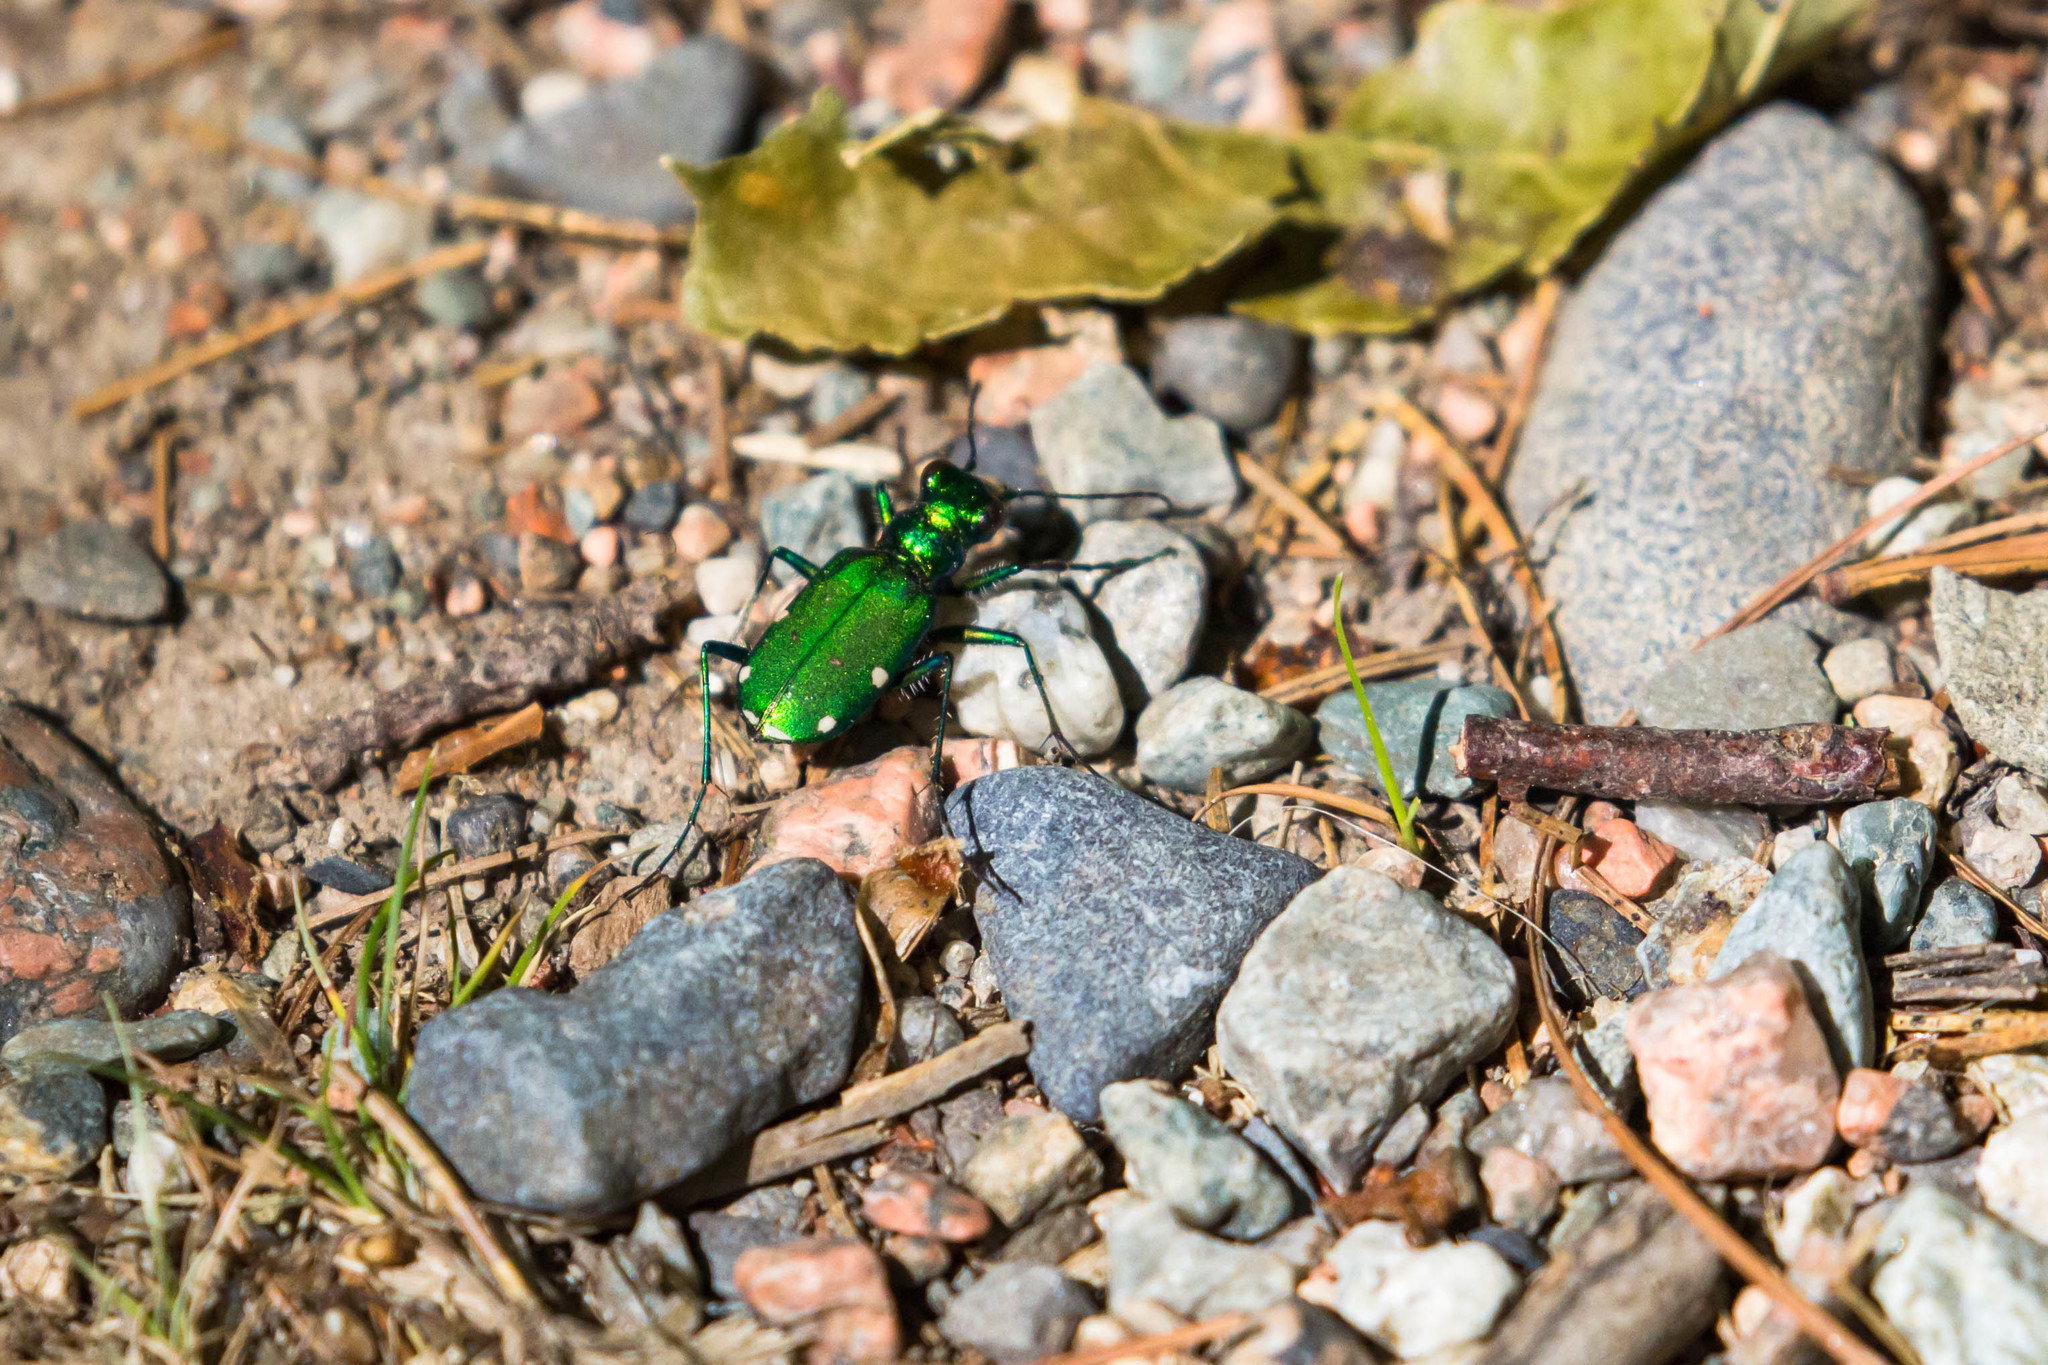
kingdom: Animalia
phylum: Arthropoda
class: Insecta
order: Coleoptera
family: Carabidae
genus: Cicindela
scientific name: Cicindela sexguttata
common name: Six-spotted tiger beetle
